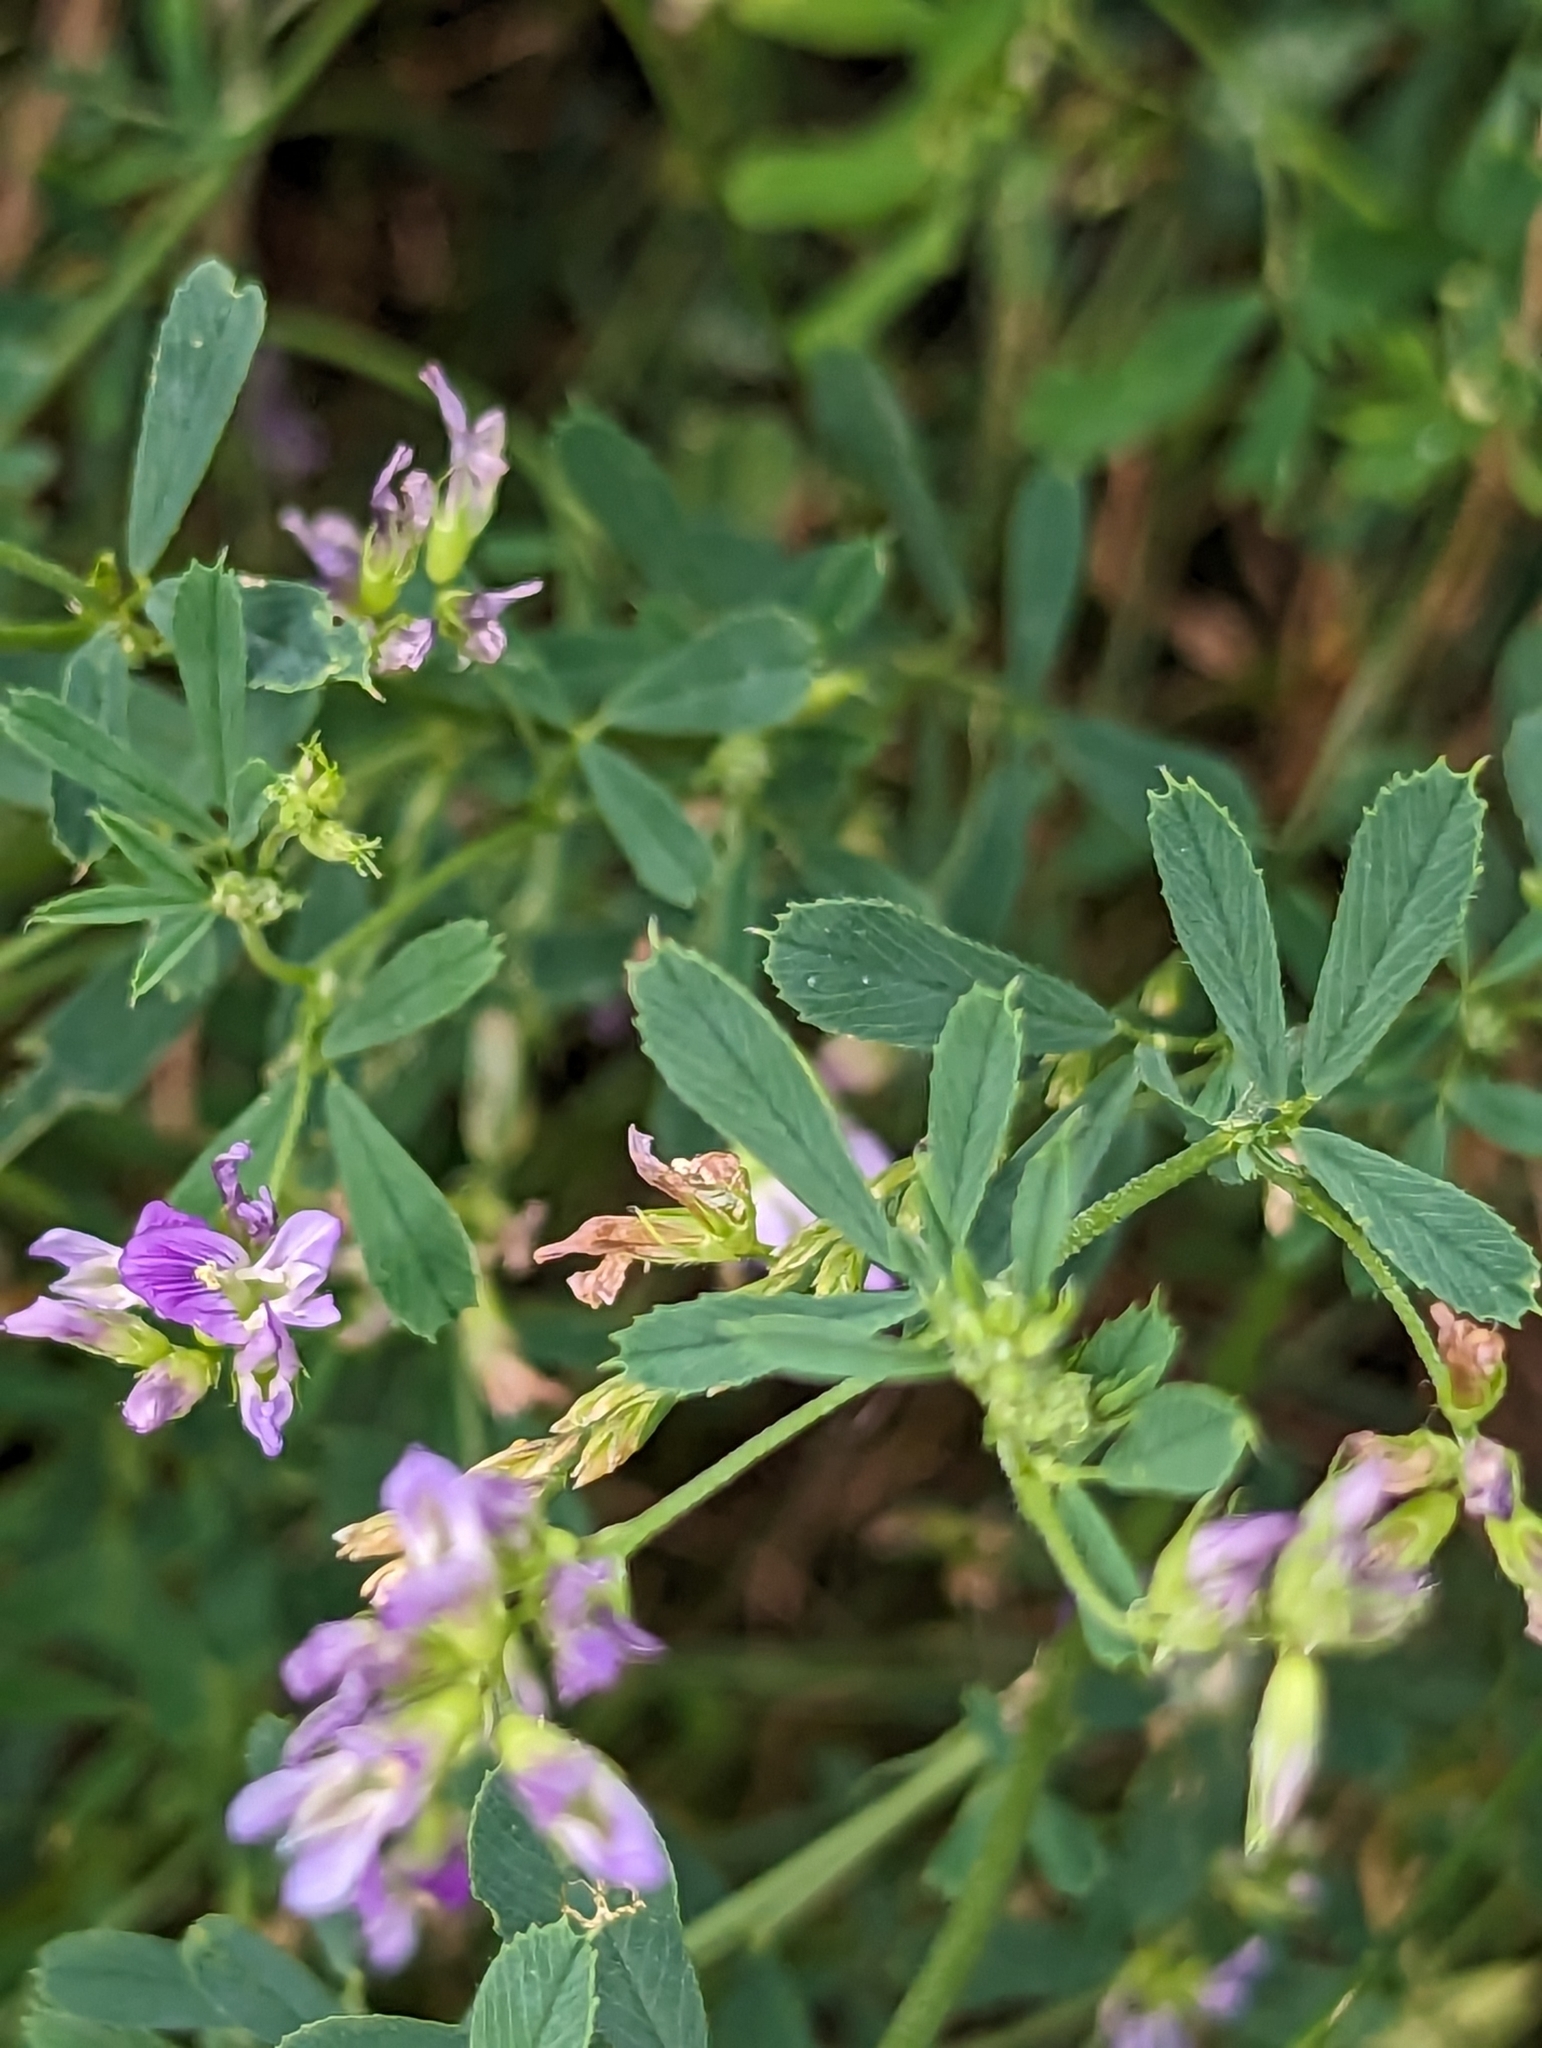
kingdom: Plantae
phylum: Tracheophyta
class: Magnoliopsida
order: Fabales
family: Fabaceae
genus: Medicago
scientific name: Medicago sativa
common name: Alfalfa
